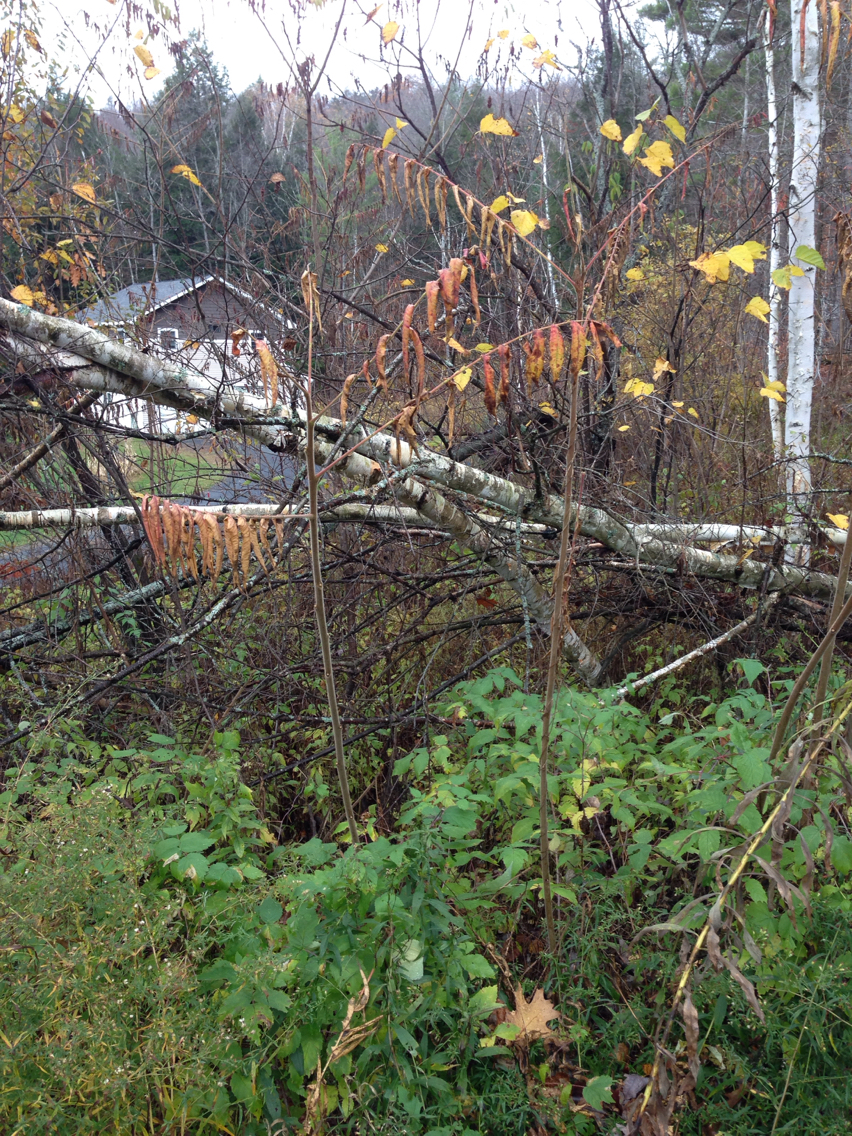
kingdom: Plantae
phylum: Tracheophyta
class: Magnoliopsida
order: Sapindales
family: Anacardiaceae
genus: Rhus
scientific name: Rhus typhina
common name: Staghorn sumac
